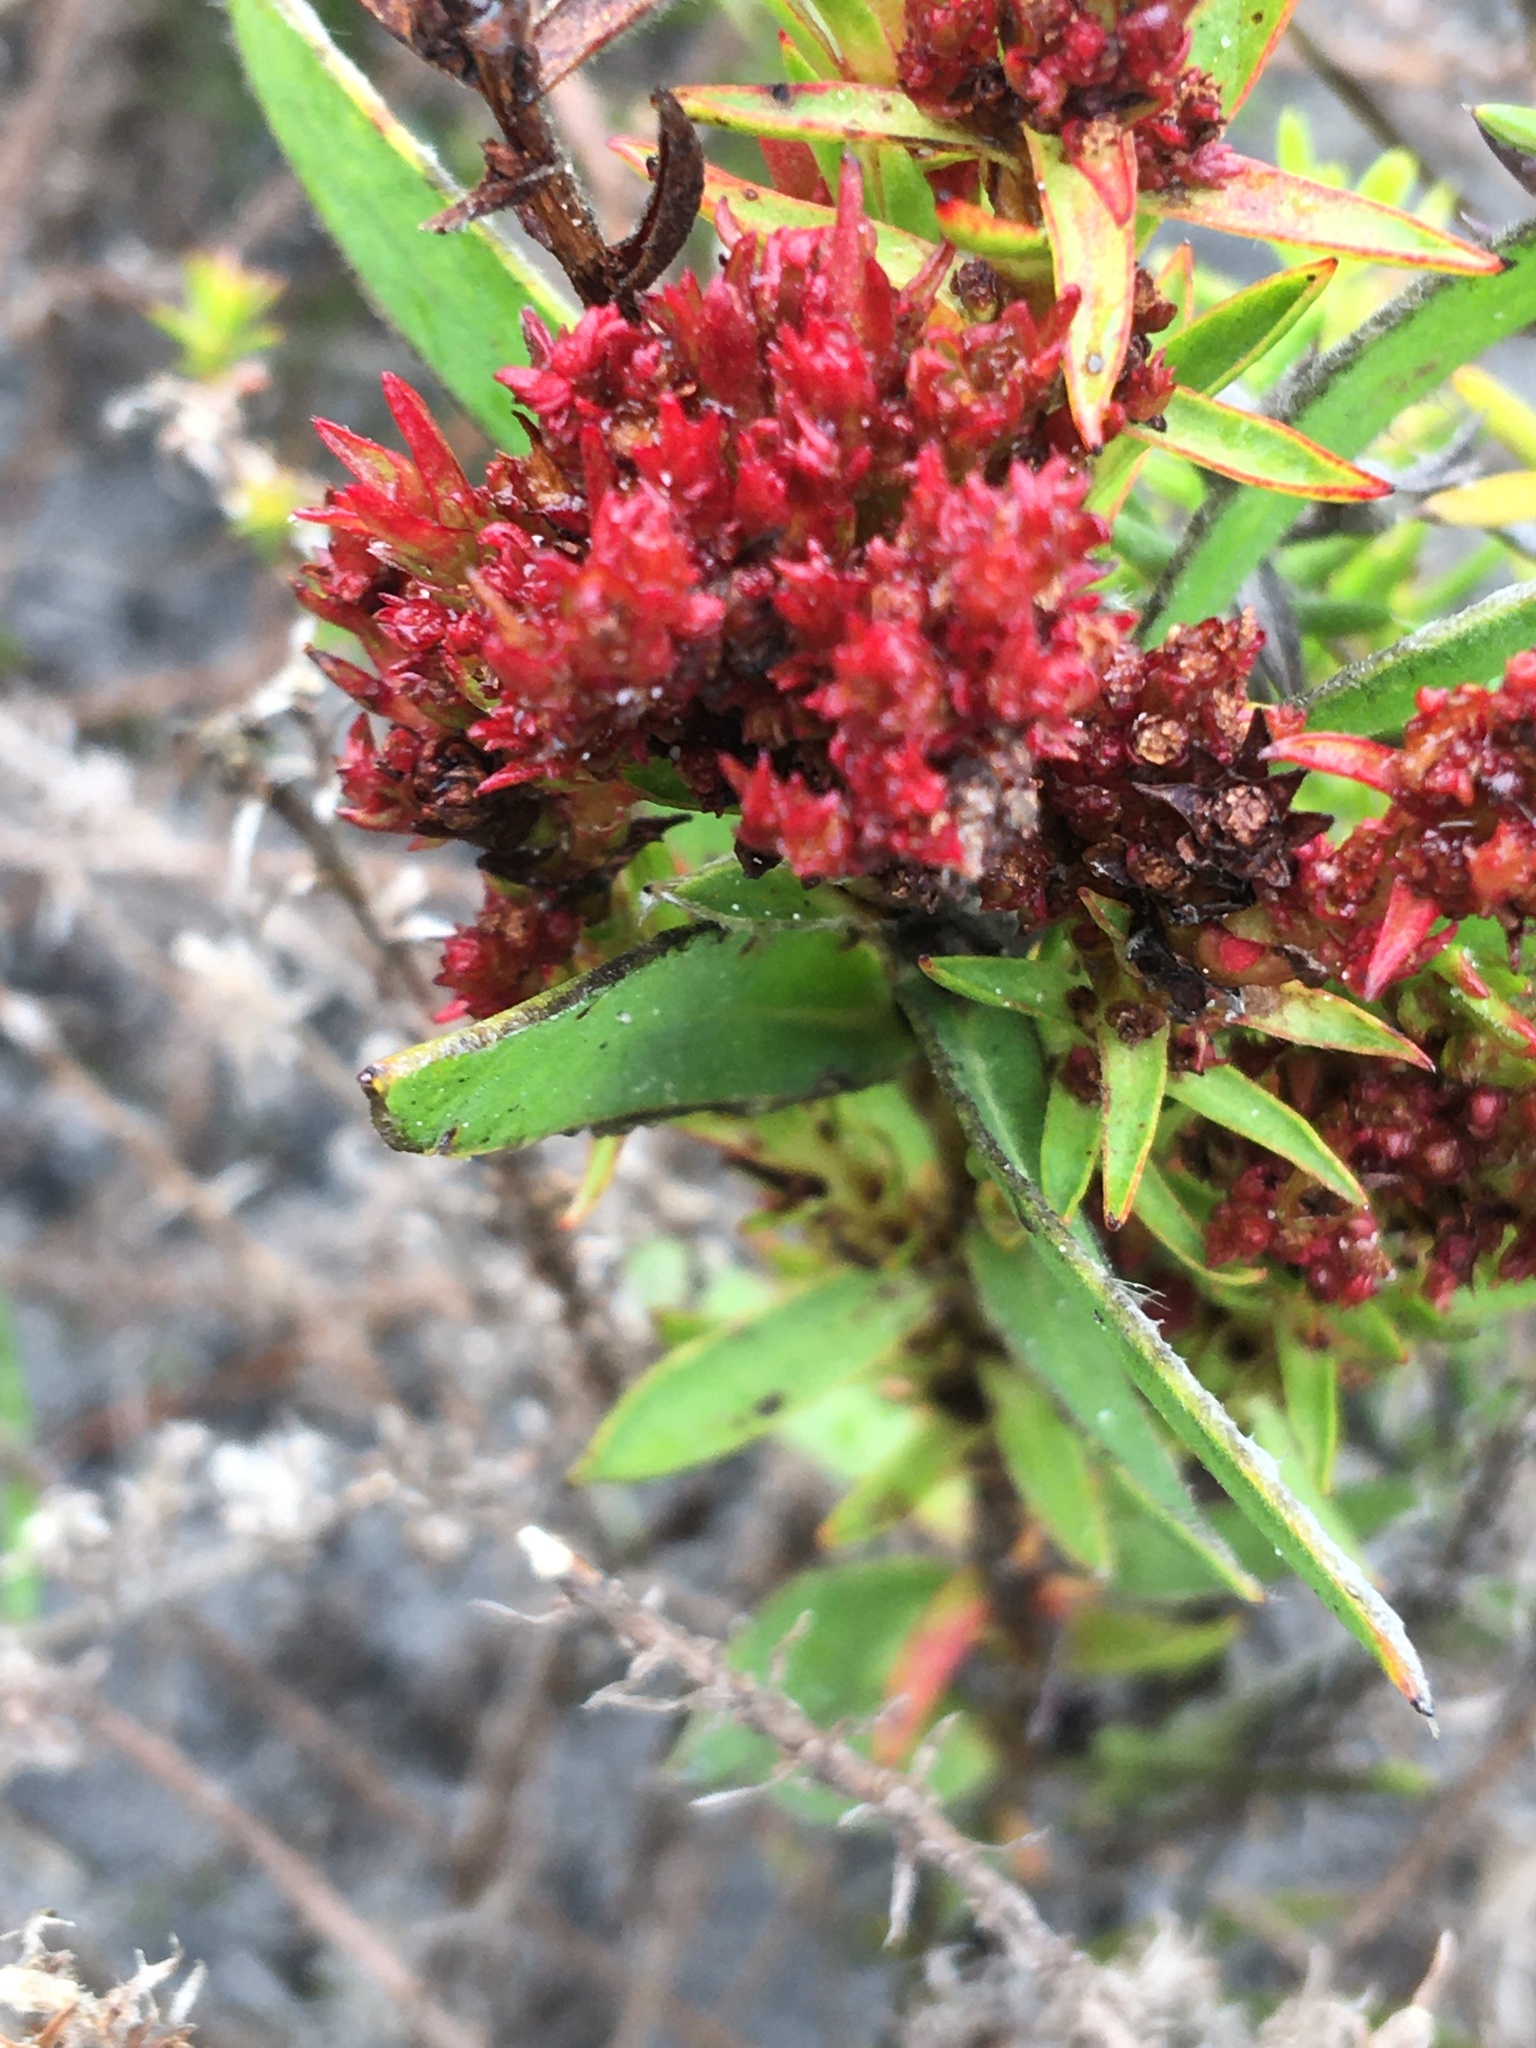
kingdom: Bacteria
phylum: Firmicutes
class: Bacilli
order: Acholeplasmatales
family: Acholeplasmataceae
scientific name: Acholeplasmataceae
